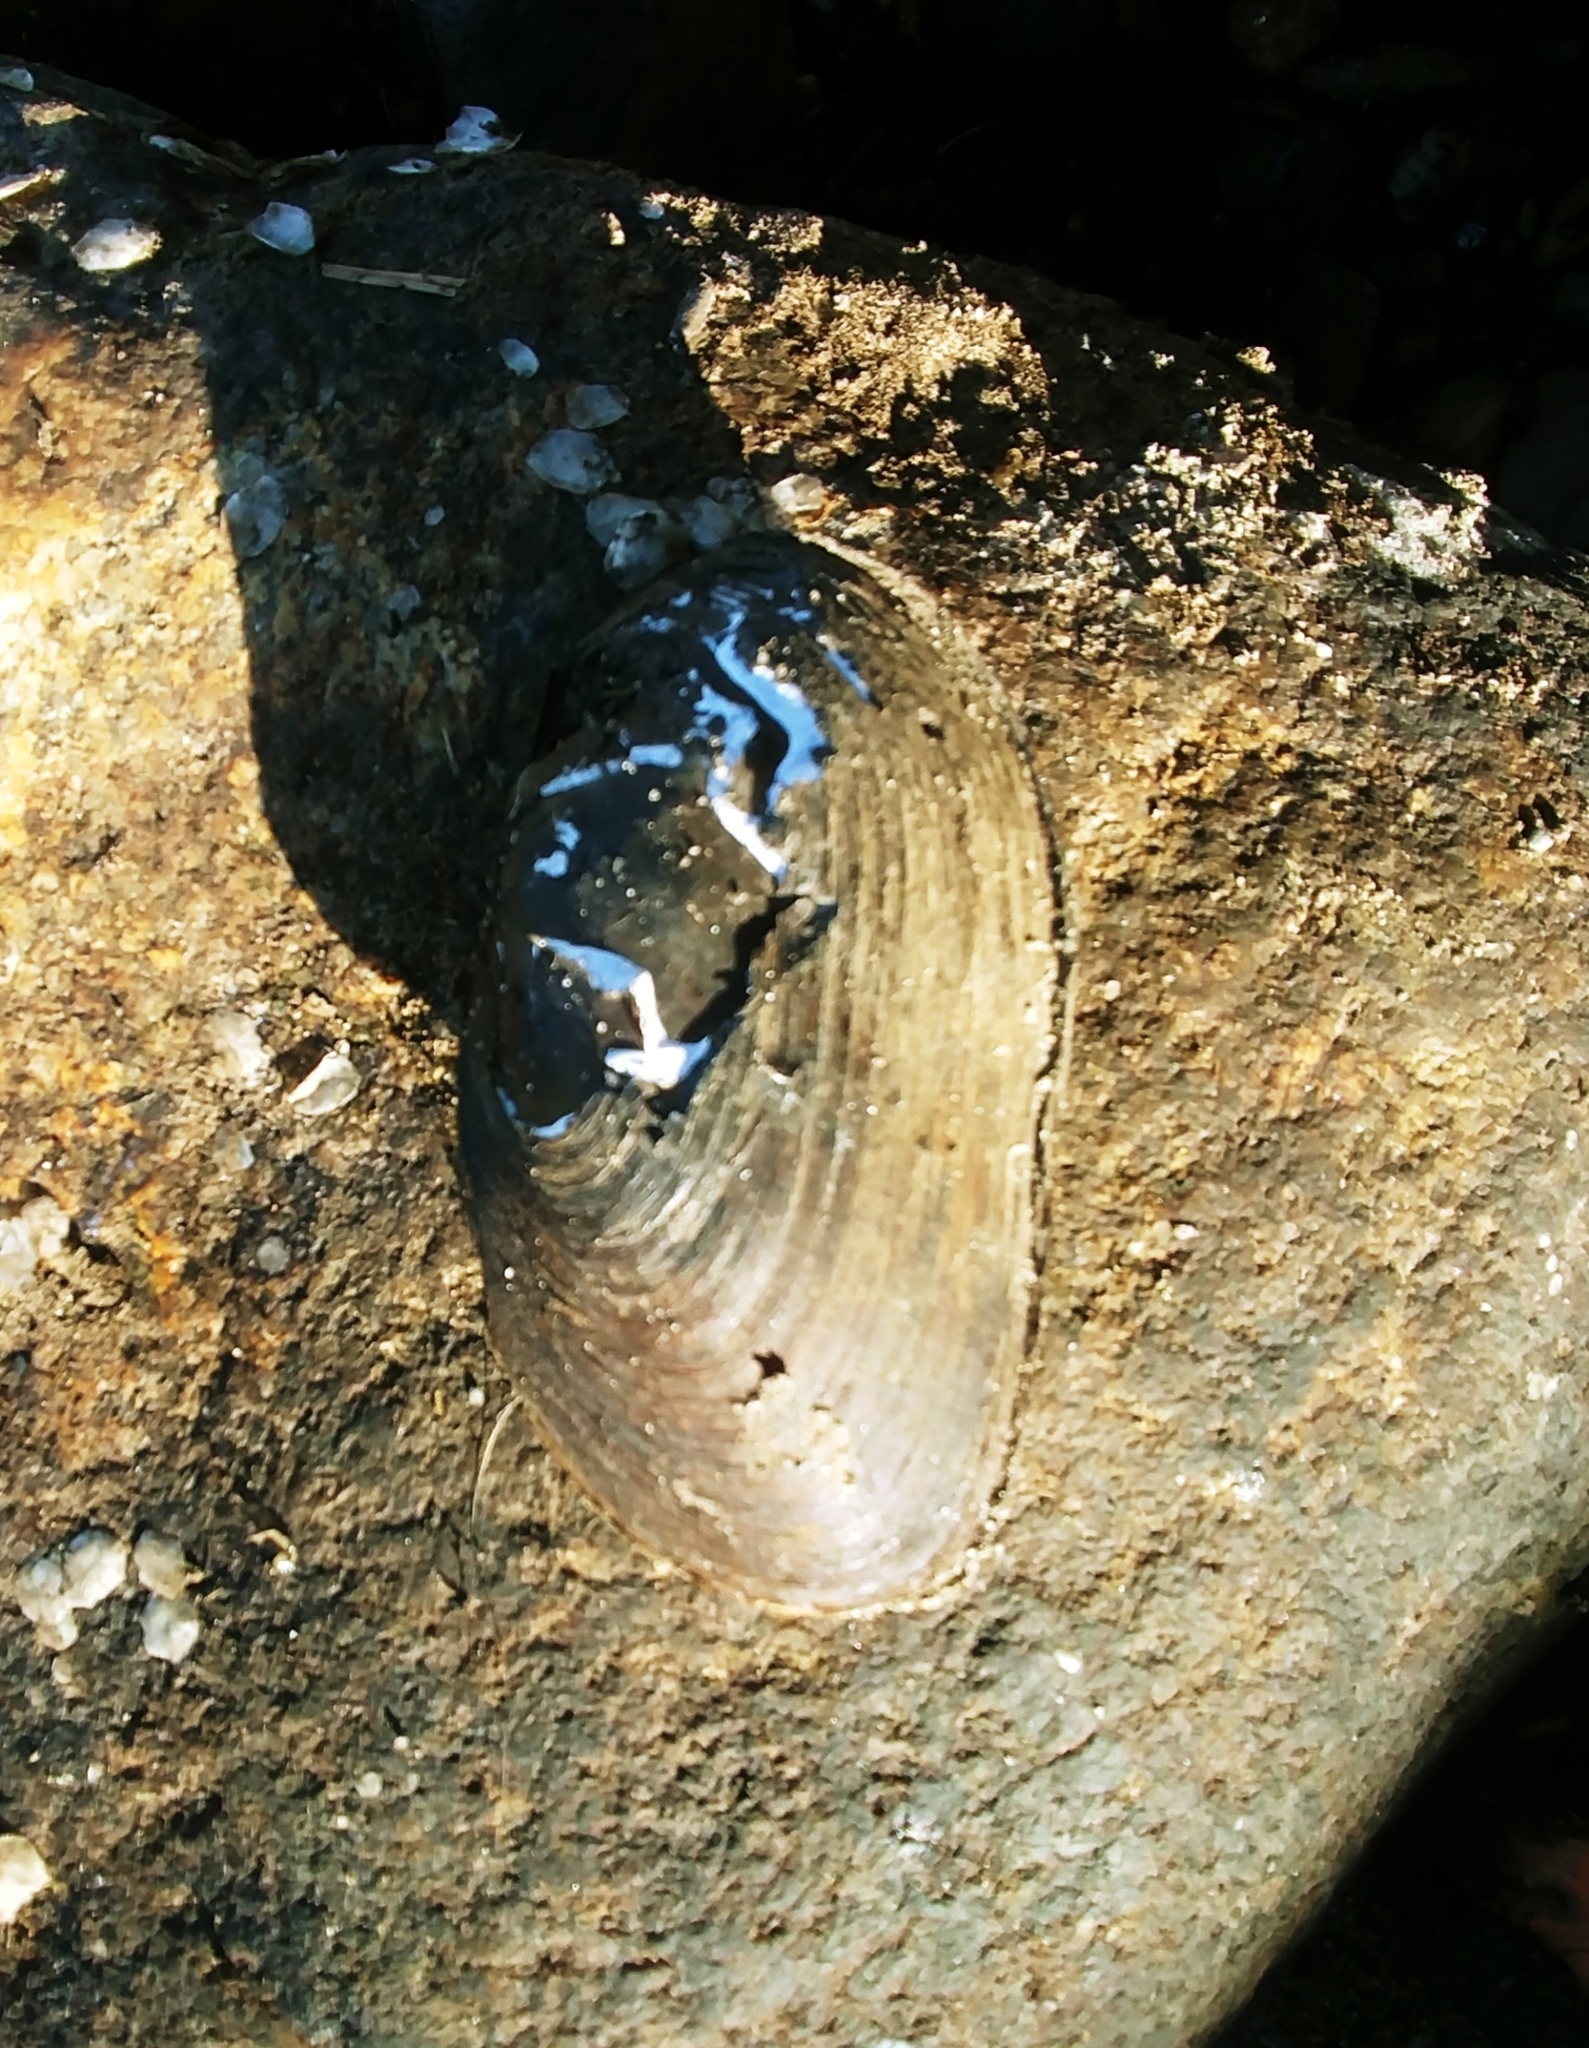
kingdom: Animalia
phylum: Mollusca
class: Bivalvia
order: Unionida
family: Unionidae
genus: Elliptio
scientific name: Elliptio complanata
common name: Eastern elliptio
